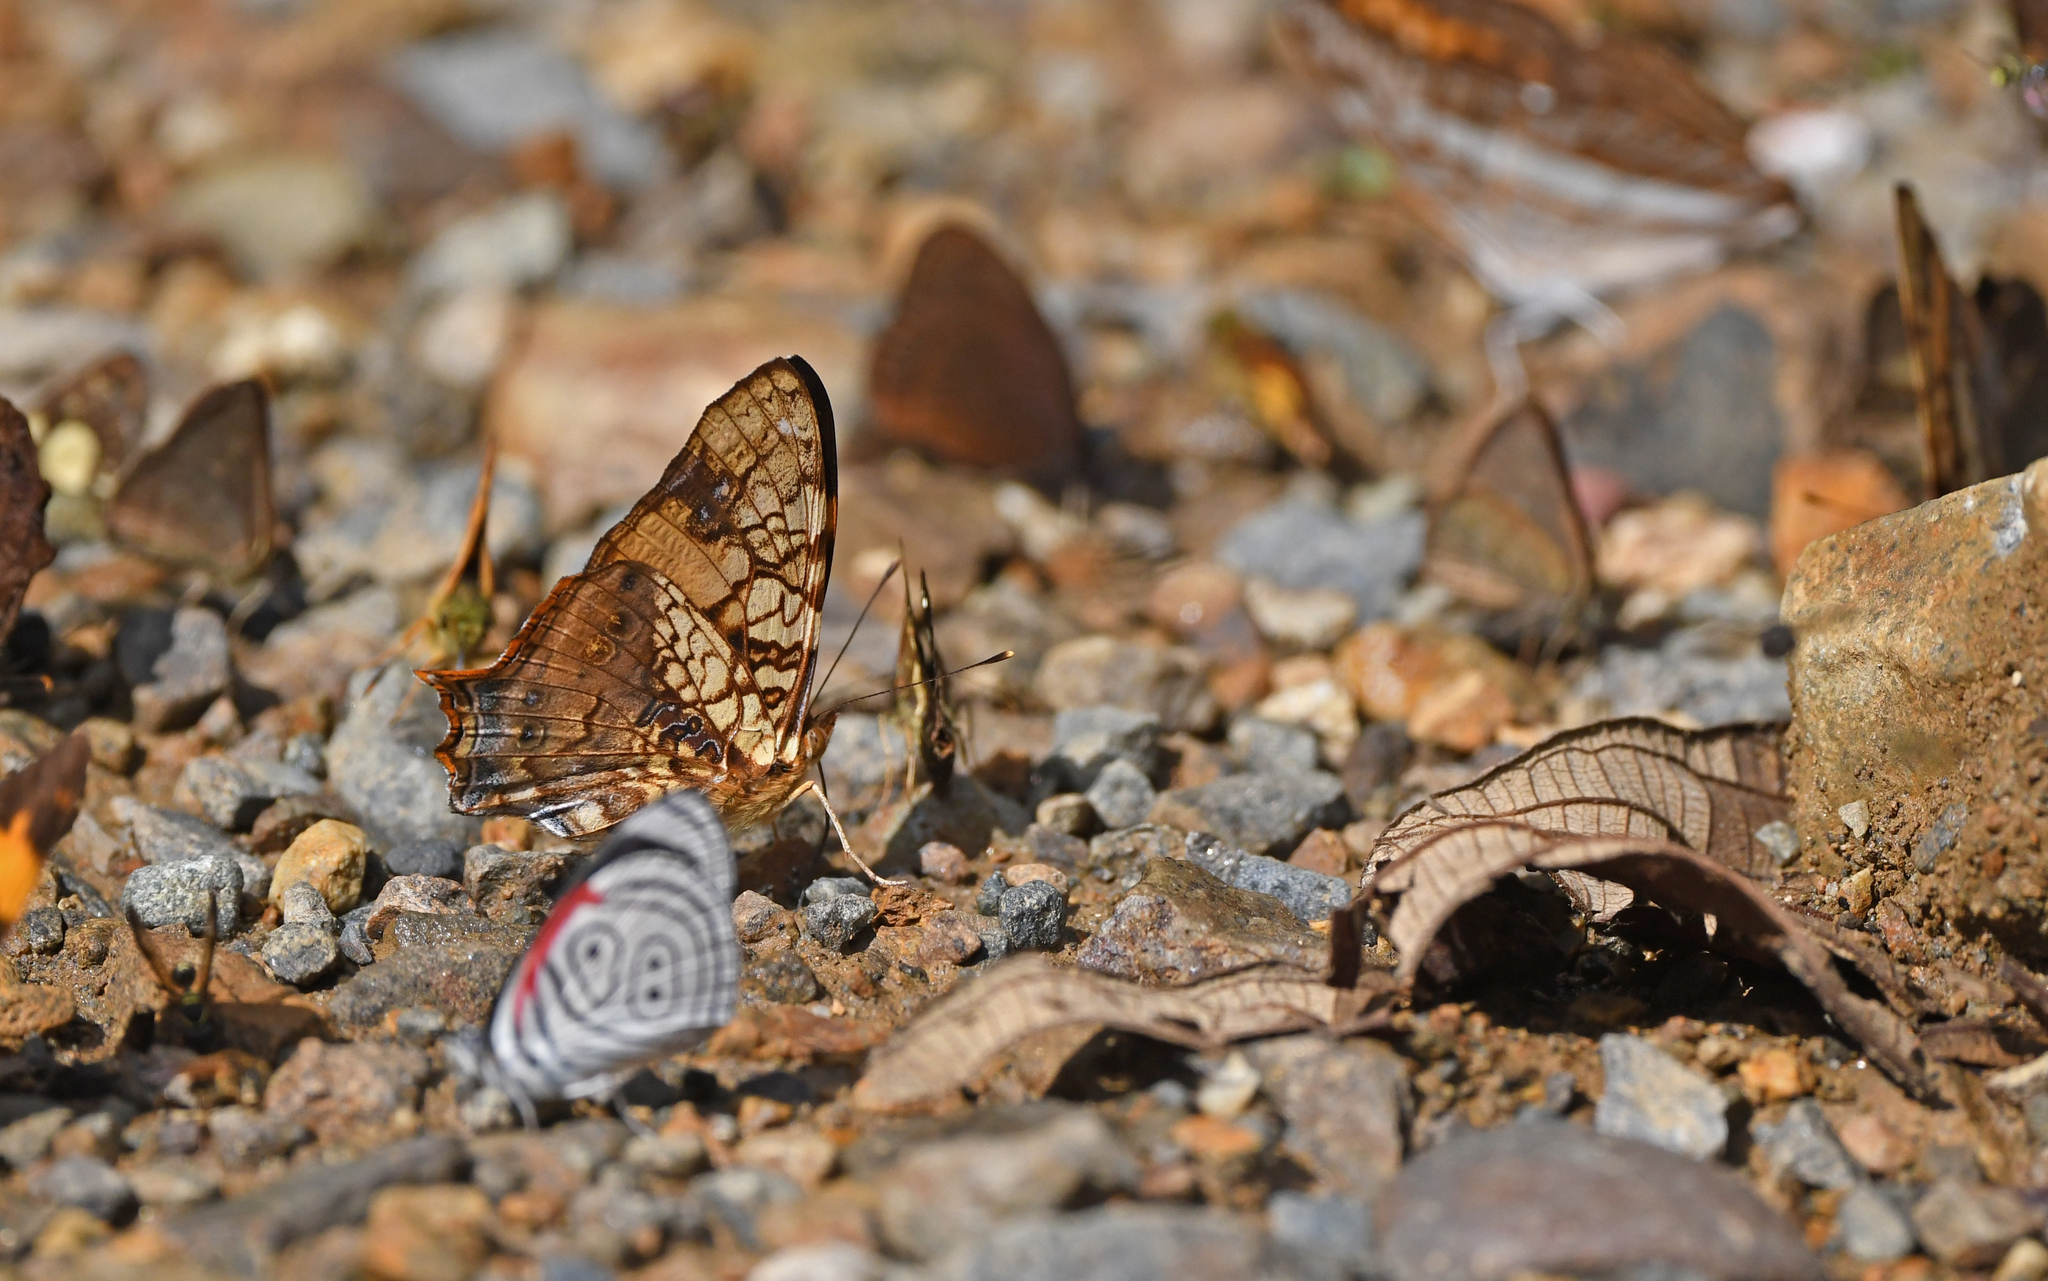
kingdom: Animalia
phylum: Arthropoda
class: Insecta
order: Lepidoptera
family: Nymphalidae
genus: Hypanartia
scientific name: Hypanartia lethe
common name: Orange mapwing
